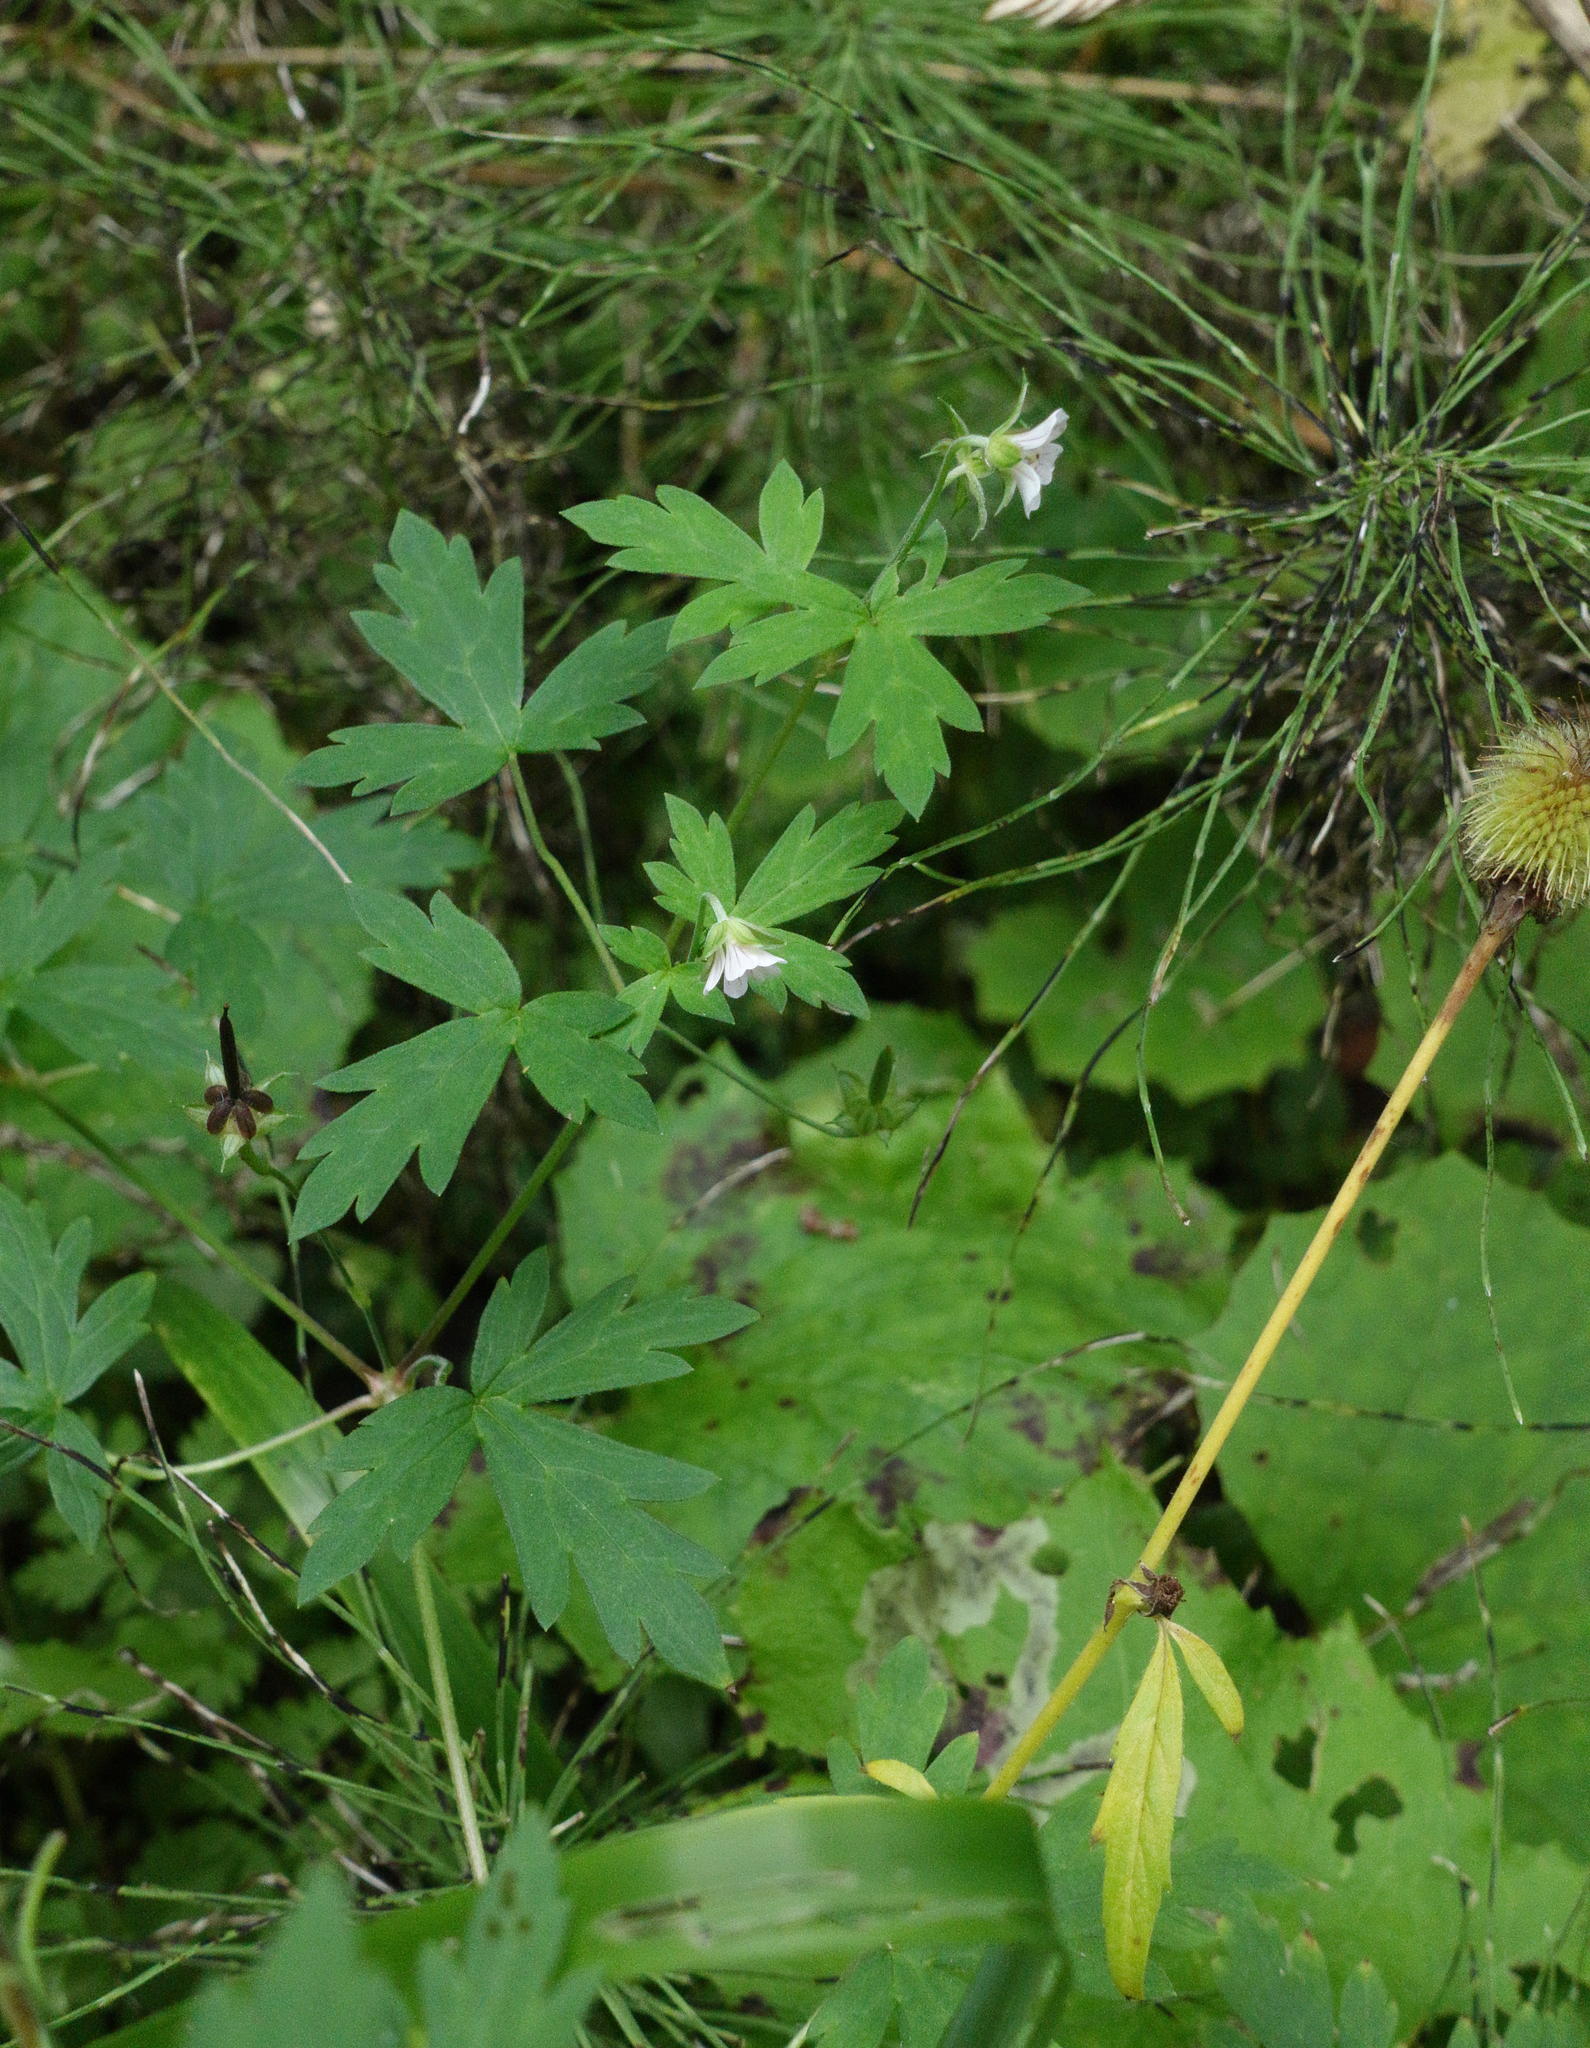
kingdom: Plantae
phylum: Tracheophyta
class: Magnoliopsida
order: Geraniales
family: Geraniaceae
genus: Geranium
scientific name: Geranium sibiricum
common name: Siberian crane's-bill
